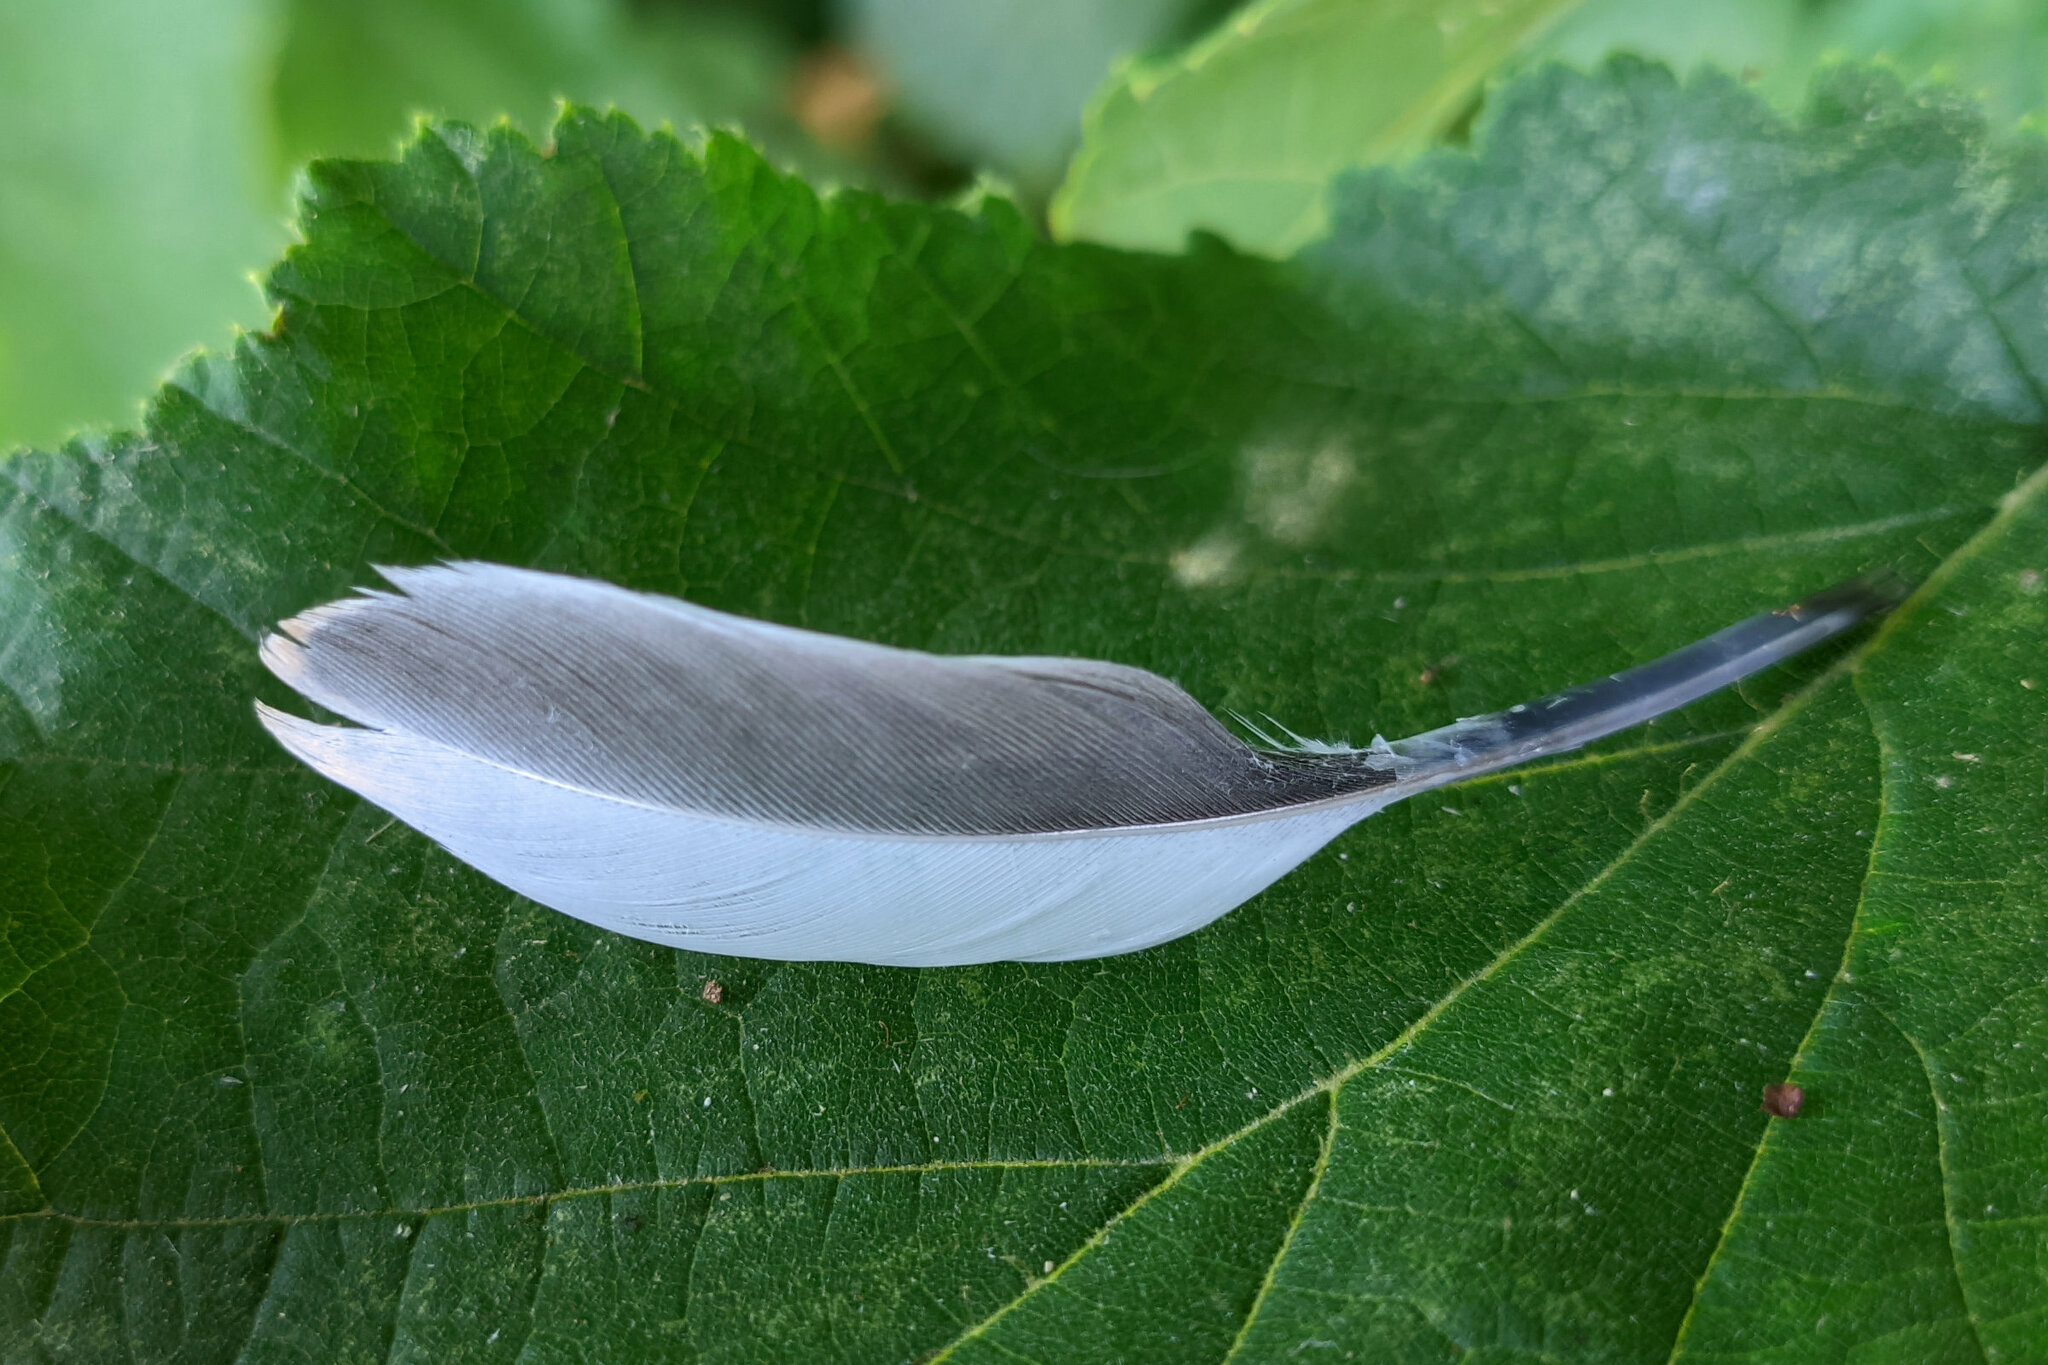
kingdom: Animalia
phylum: Chordata
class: Aves
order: Columbiformes
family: Columbidae
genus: Columba
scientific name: Columba palumbus
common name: Common wood pigeon
